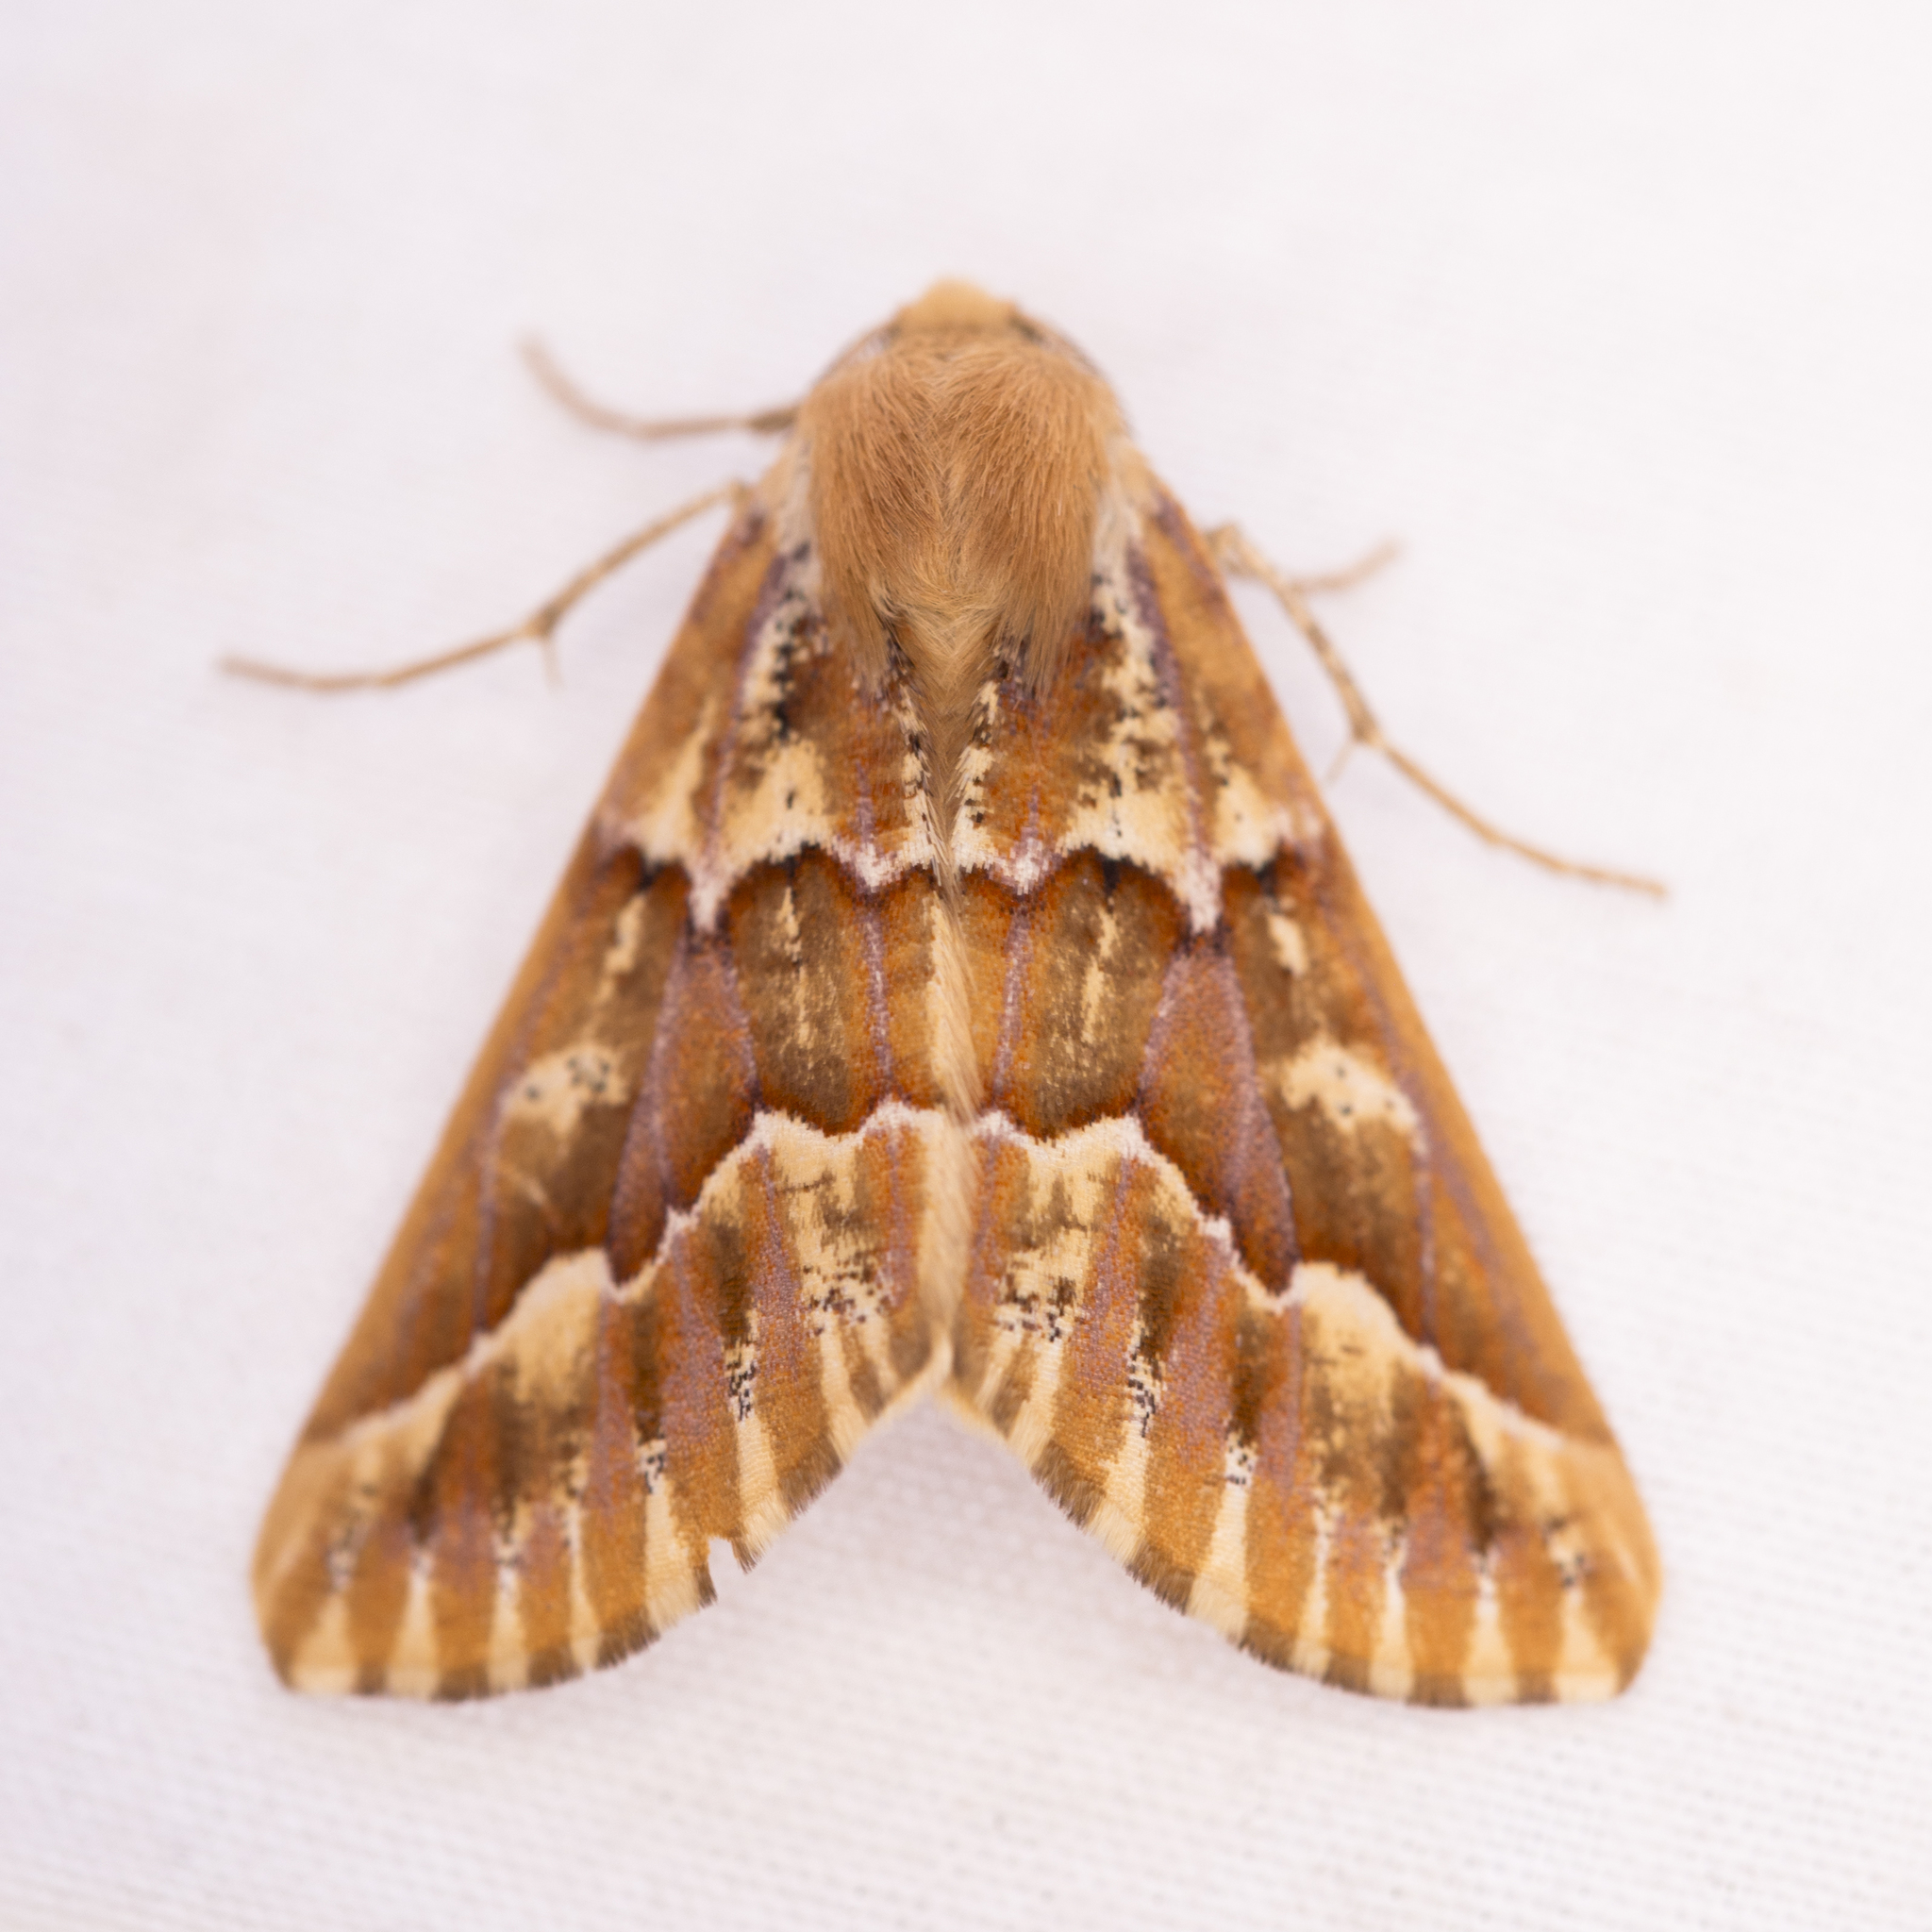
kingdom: Animalia
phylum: Arthropoda
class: Insecta
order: Lepidoptera
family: Geometridae
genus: Caripeta
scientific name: Caripeta aequaliaria
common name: Red girdle moth
